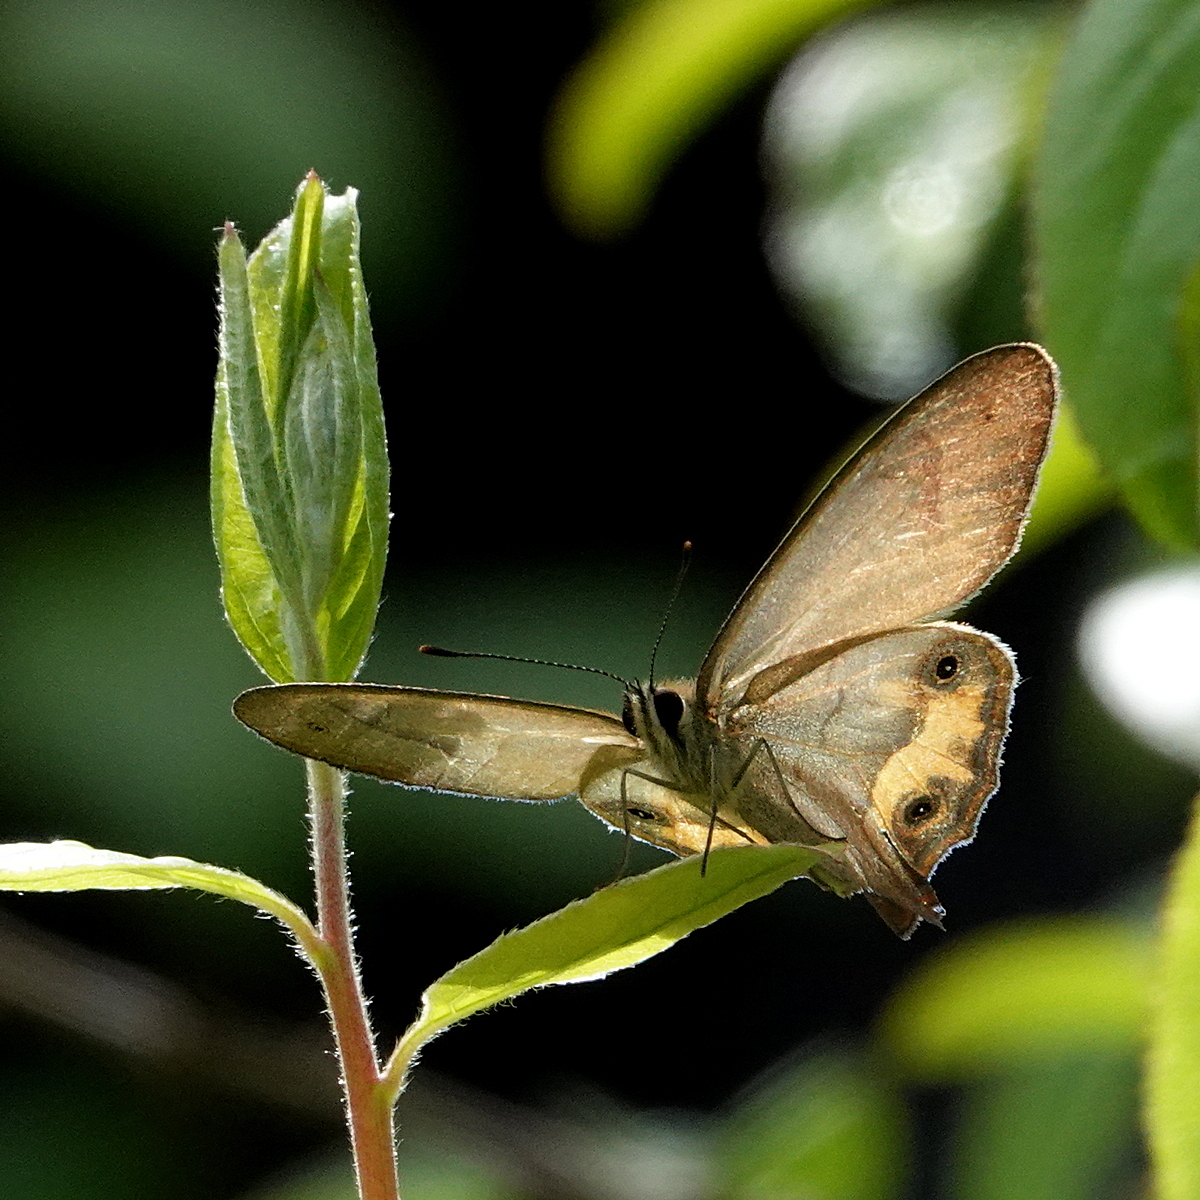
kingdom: Animalia
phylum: Arthropoda
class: Insecta
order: Lepidoptera
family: Nymphalidae
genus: Hypocysta
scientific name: Hypocysta metirius
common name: Brown ringlet
